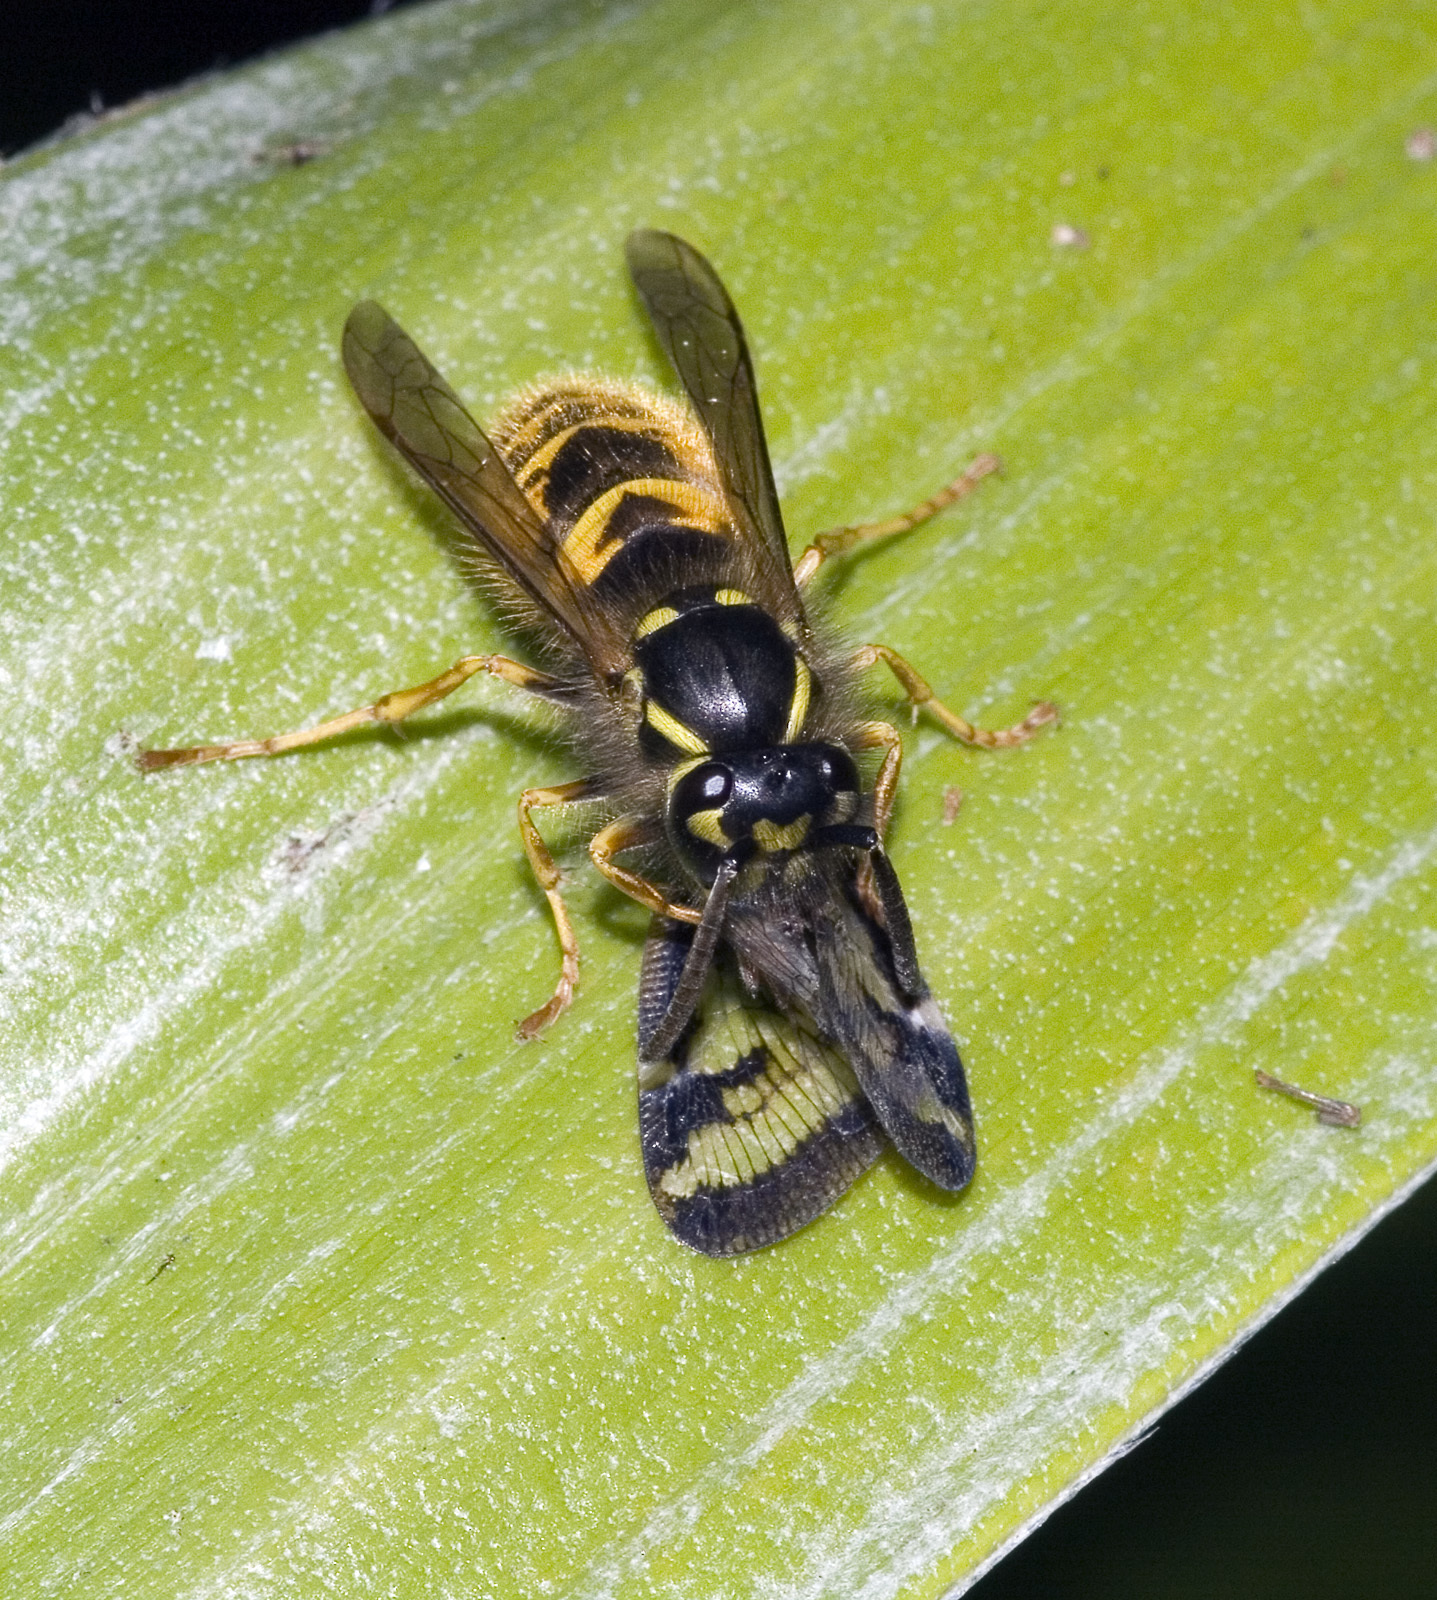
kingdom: Animalia
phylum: Arthropoda
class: Insecta
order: Hymenoptera
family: Vespidae
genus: Vespula
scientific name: Vespula vulgaris
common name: Common wasp
